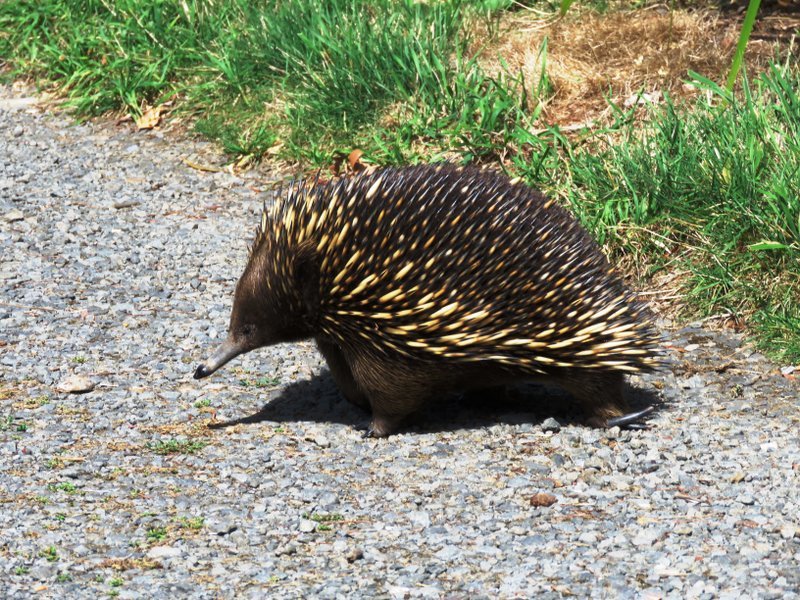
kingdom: Animalia
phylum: Chordata
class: Mammalia
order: Monotremata
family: Tachyglossidae
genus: Tachyglossus
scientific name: Tachyglossus aculeatus
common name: Short-beaked echidna
